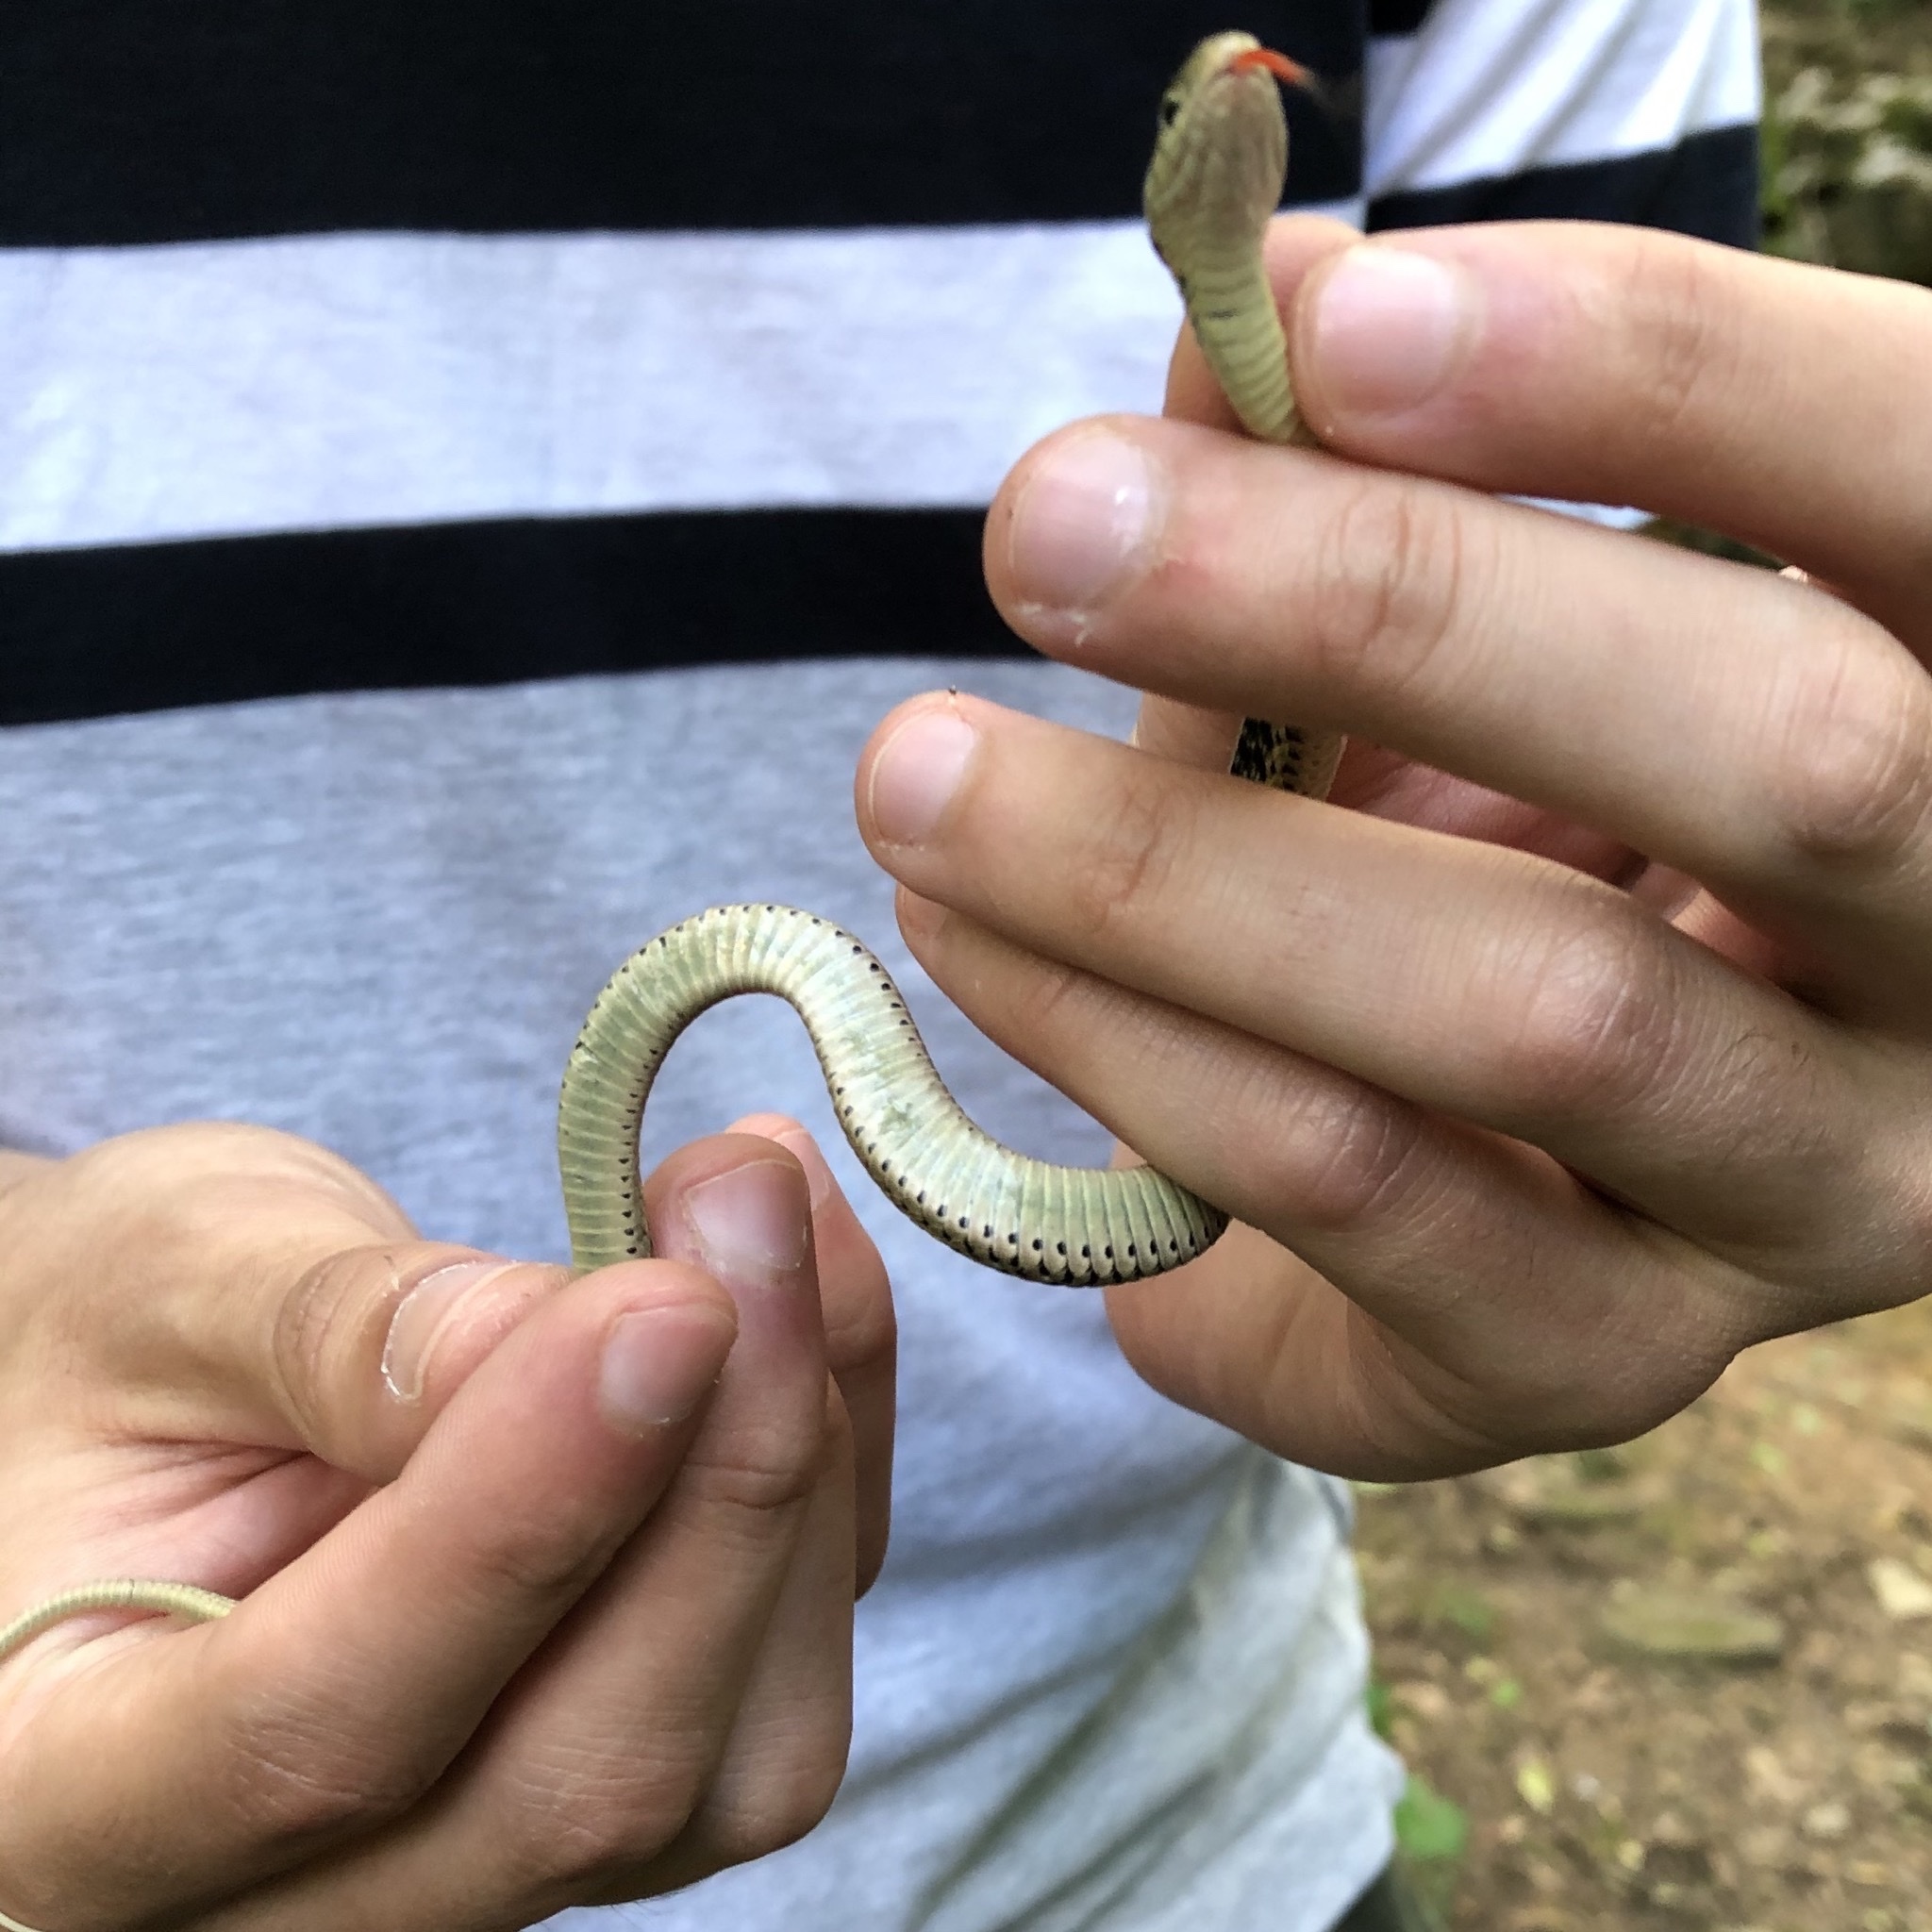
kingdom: Animalia
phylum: Chordata
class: Squamata
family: Colubridae
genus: Thamnophis
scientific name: Thamnophis sirtalis
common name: Common garter snake
